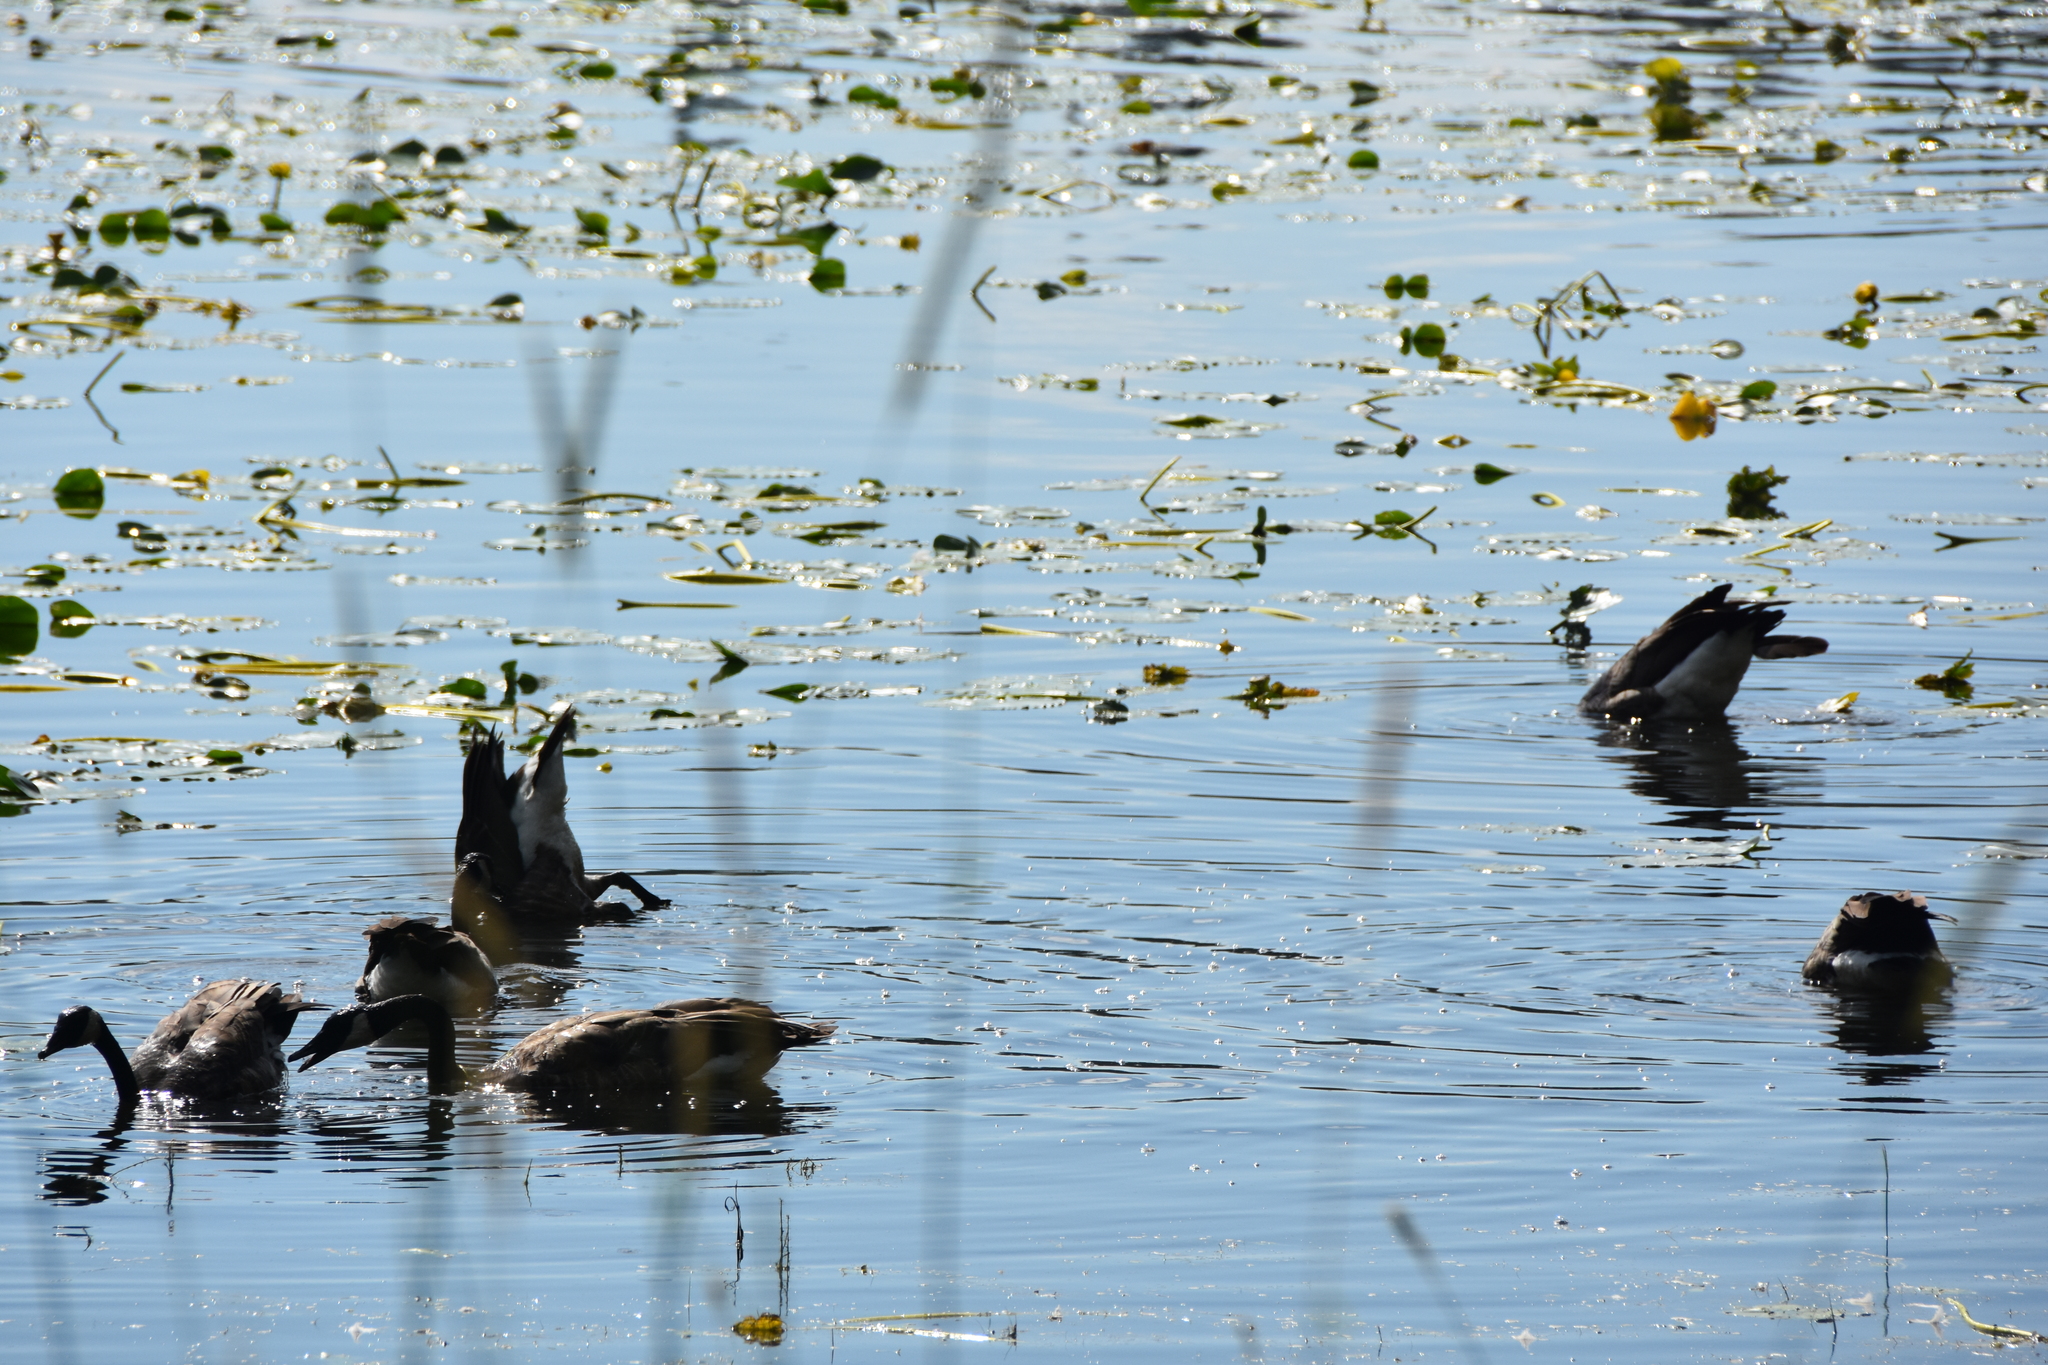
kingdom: Animalia
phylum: Chordata
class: Aves
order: Anseriformes
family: Anatidae
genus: Branta
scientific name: Branta canadensis
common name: Canada goose
